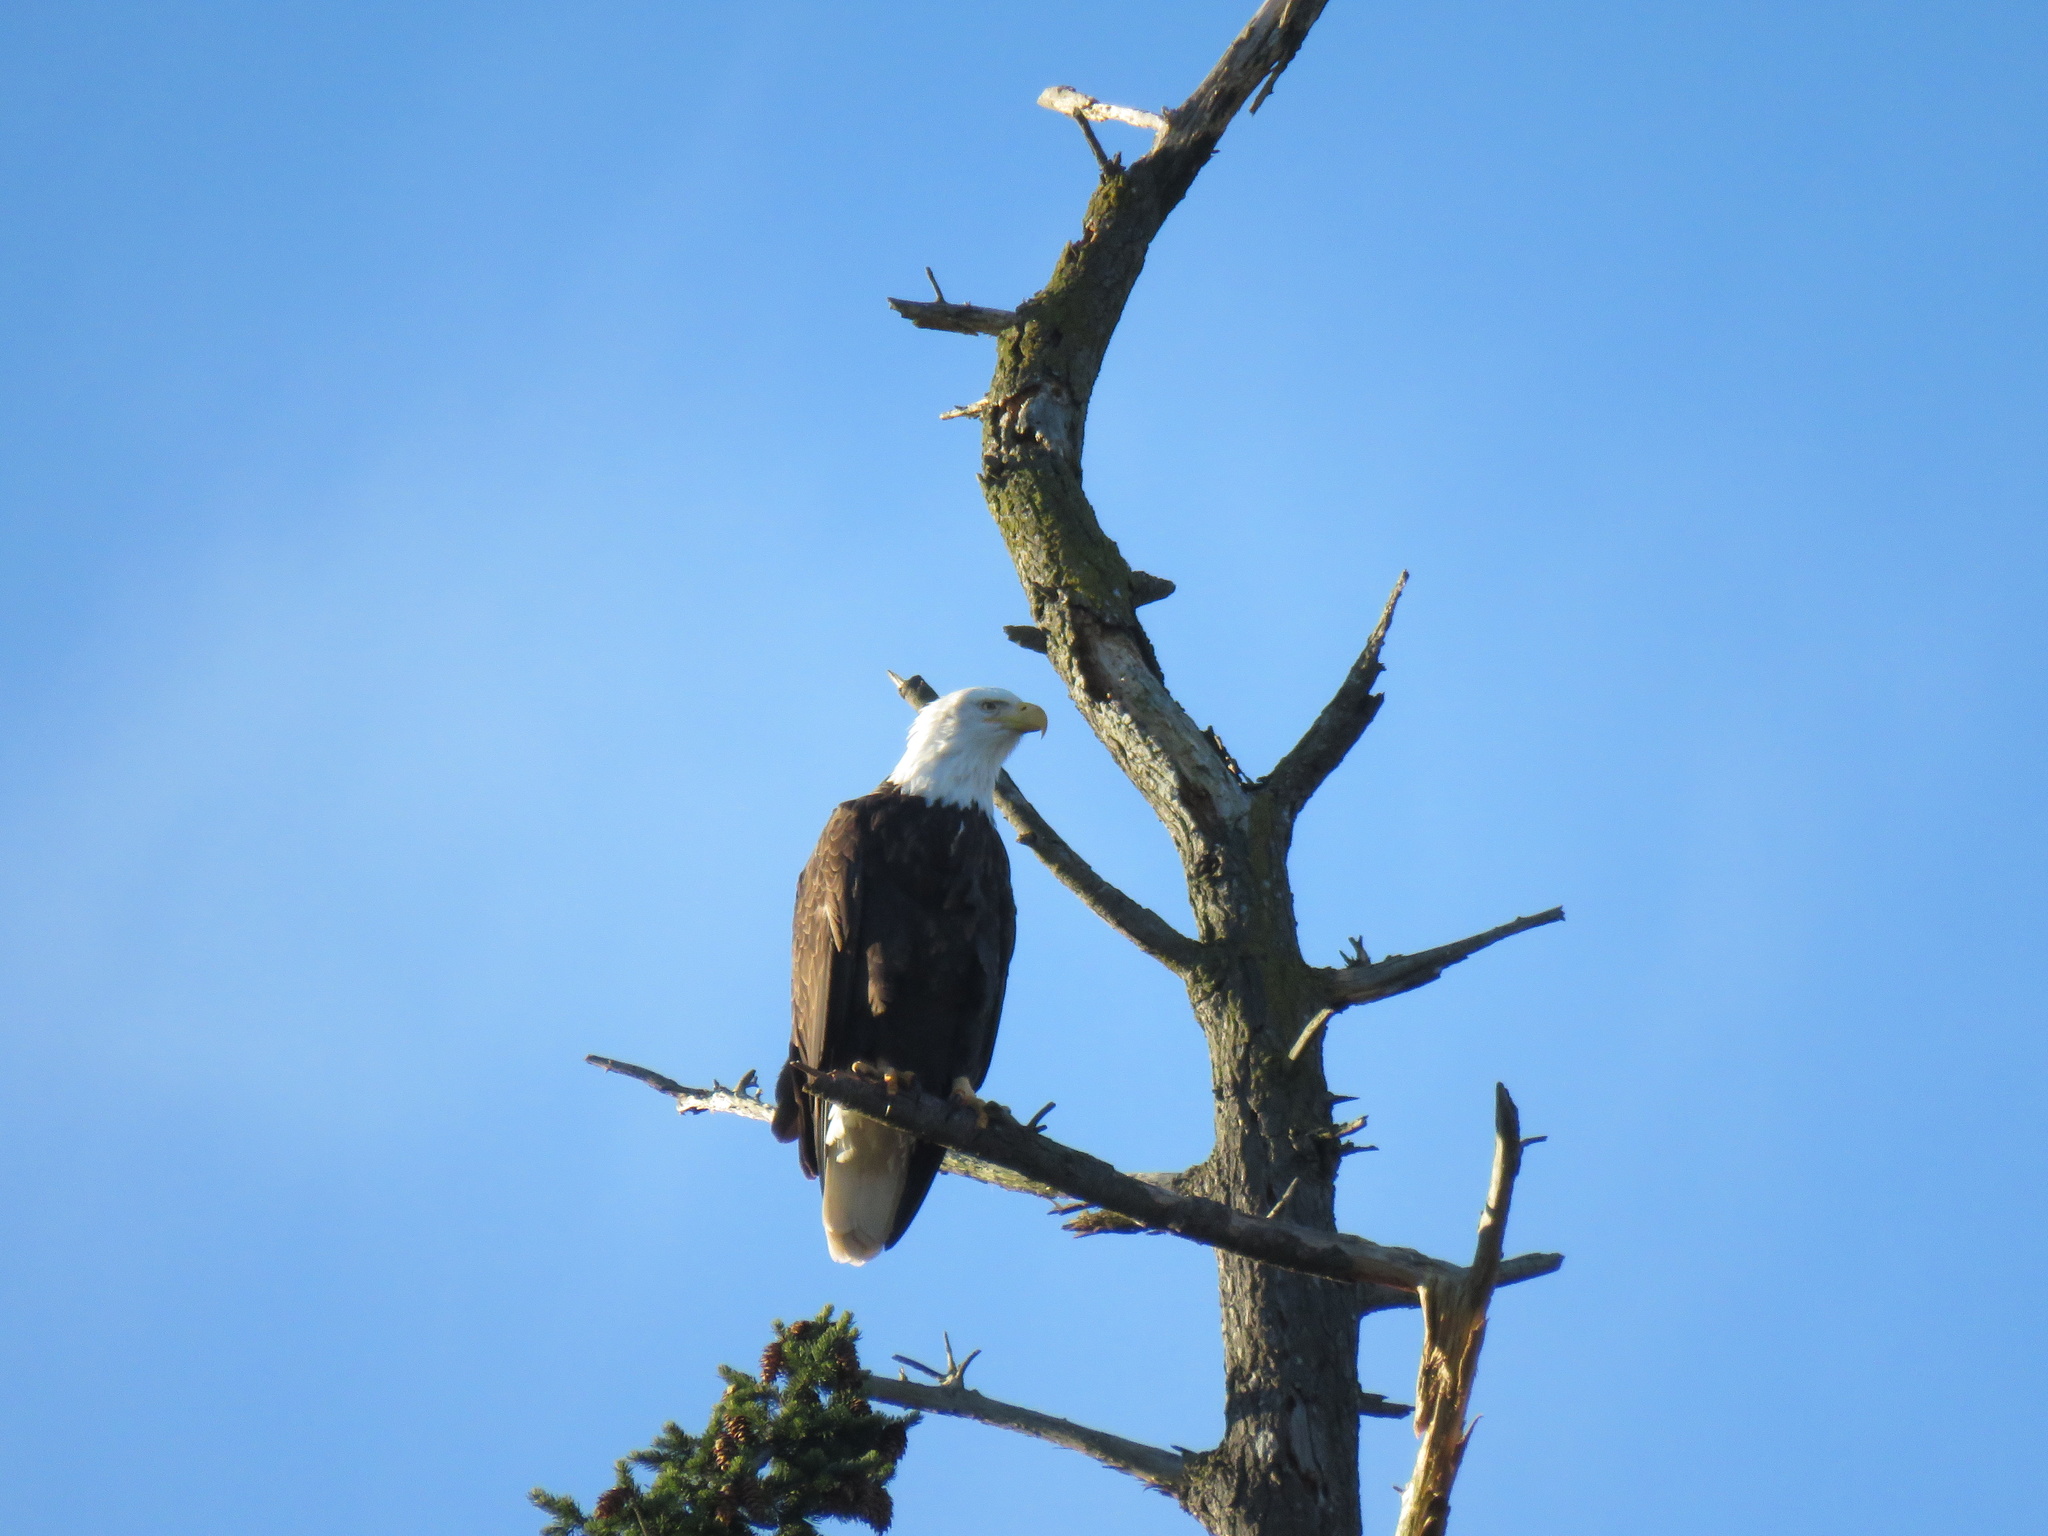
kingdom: Animalia
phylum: Chordata
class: Aves
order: Accipitriformes
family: Accipitridae
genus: Haliaeetus
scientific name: Haliaeetus leucocephalus
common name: Bald eagle
